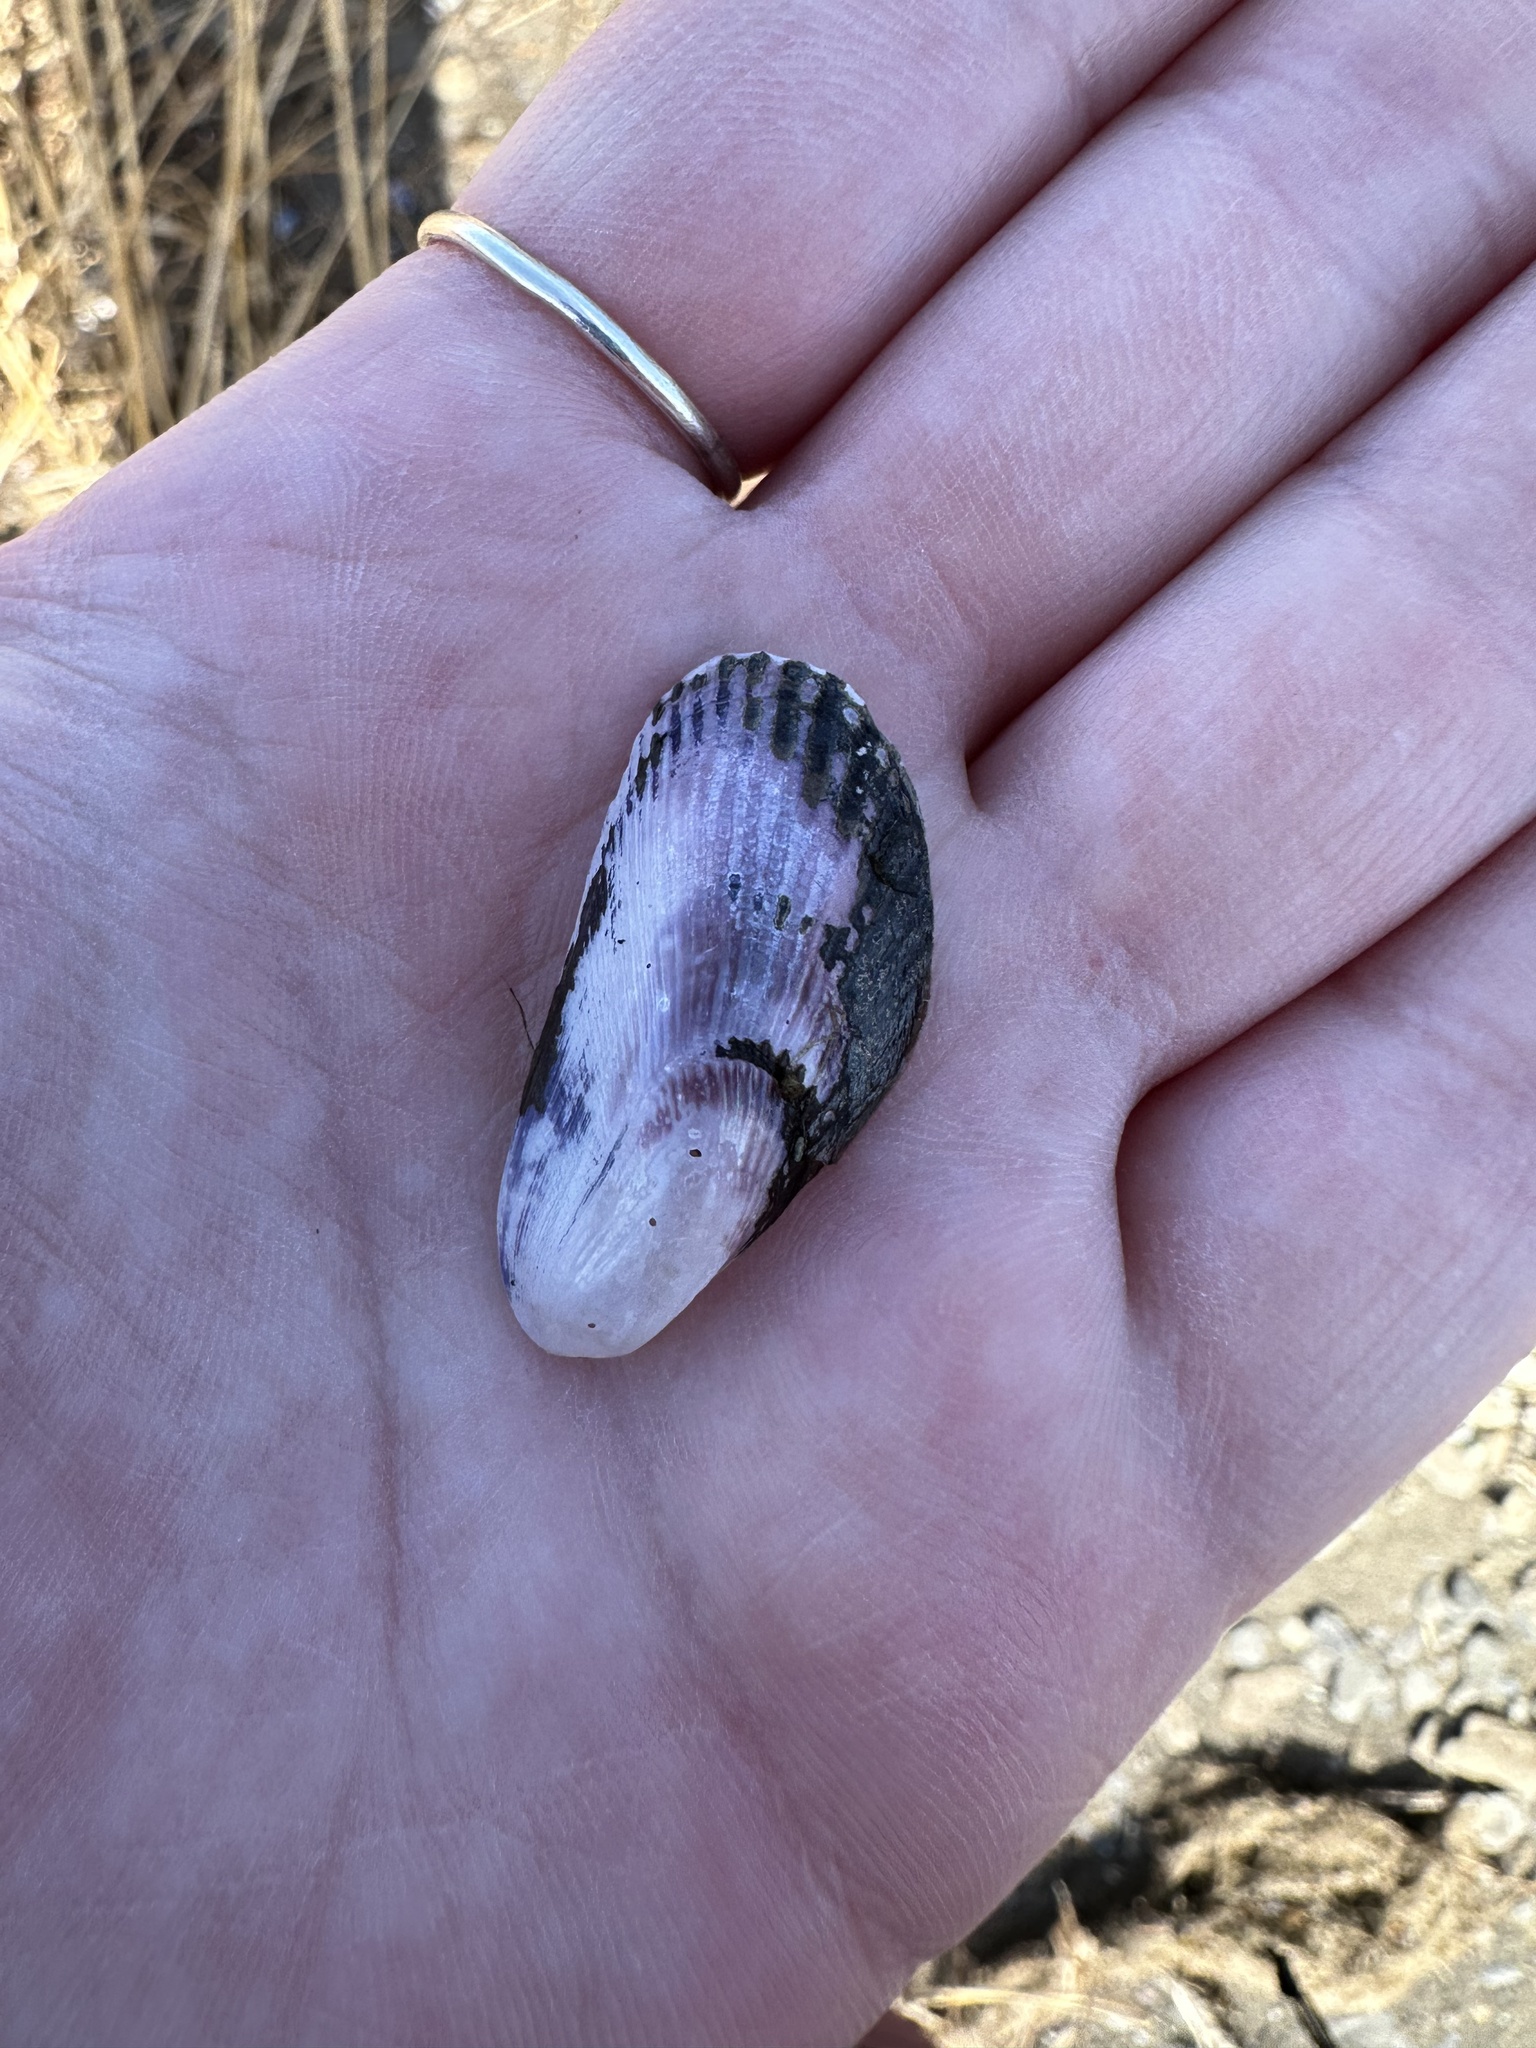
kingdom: Animalia
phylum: Mollusca
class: Bivalvia
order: Mytilida
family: Mytilidae
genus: Geukensia
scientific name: Geukensia demissa
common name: Ribbed mussel
